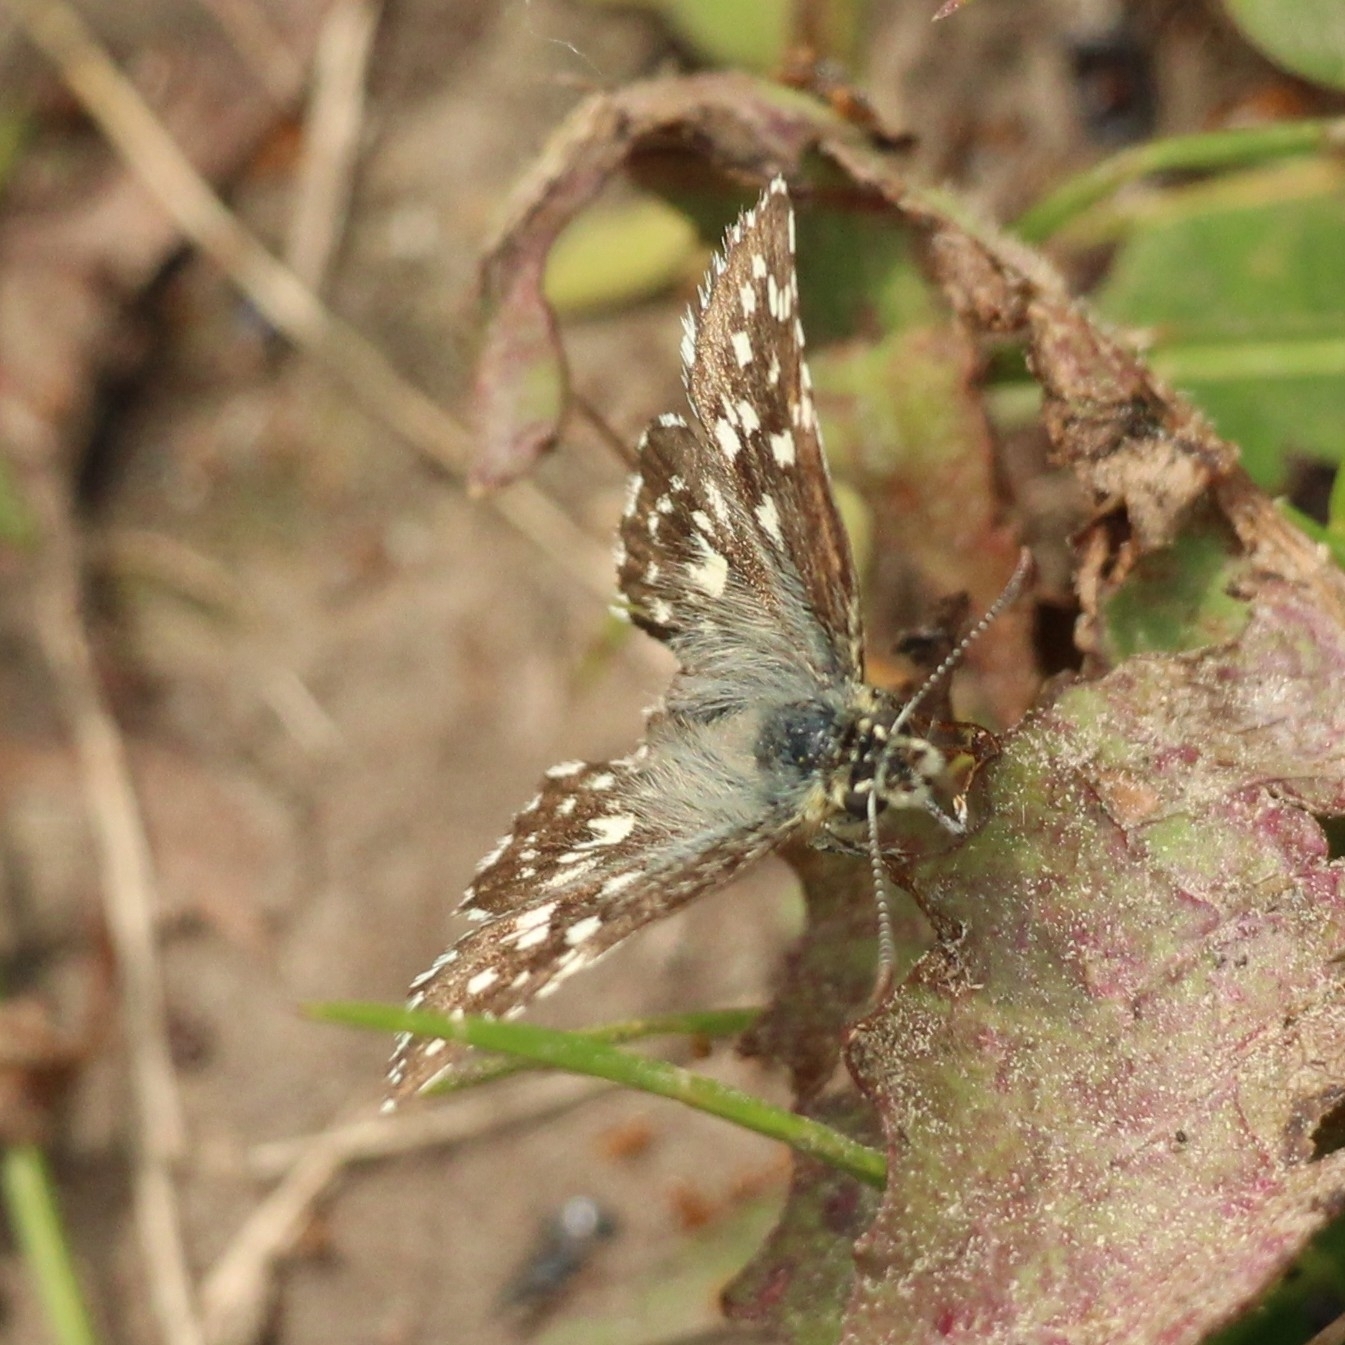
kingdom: Animalia
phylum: Arthropoda
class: Insecta
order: Lepidoptera
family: Hesperiidae
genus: Pyrgus
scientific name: Pyrgus malvae
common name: Grizzled skipper
